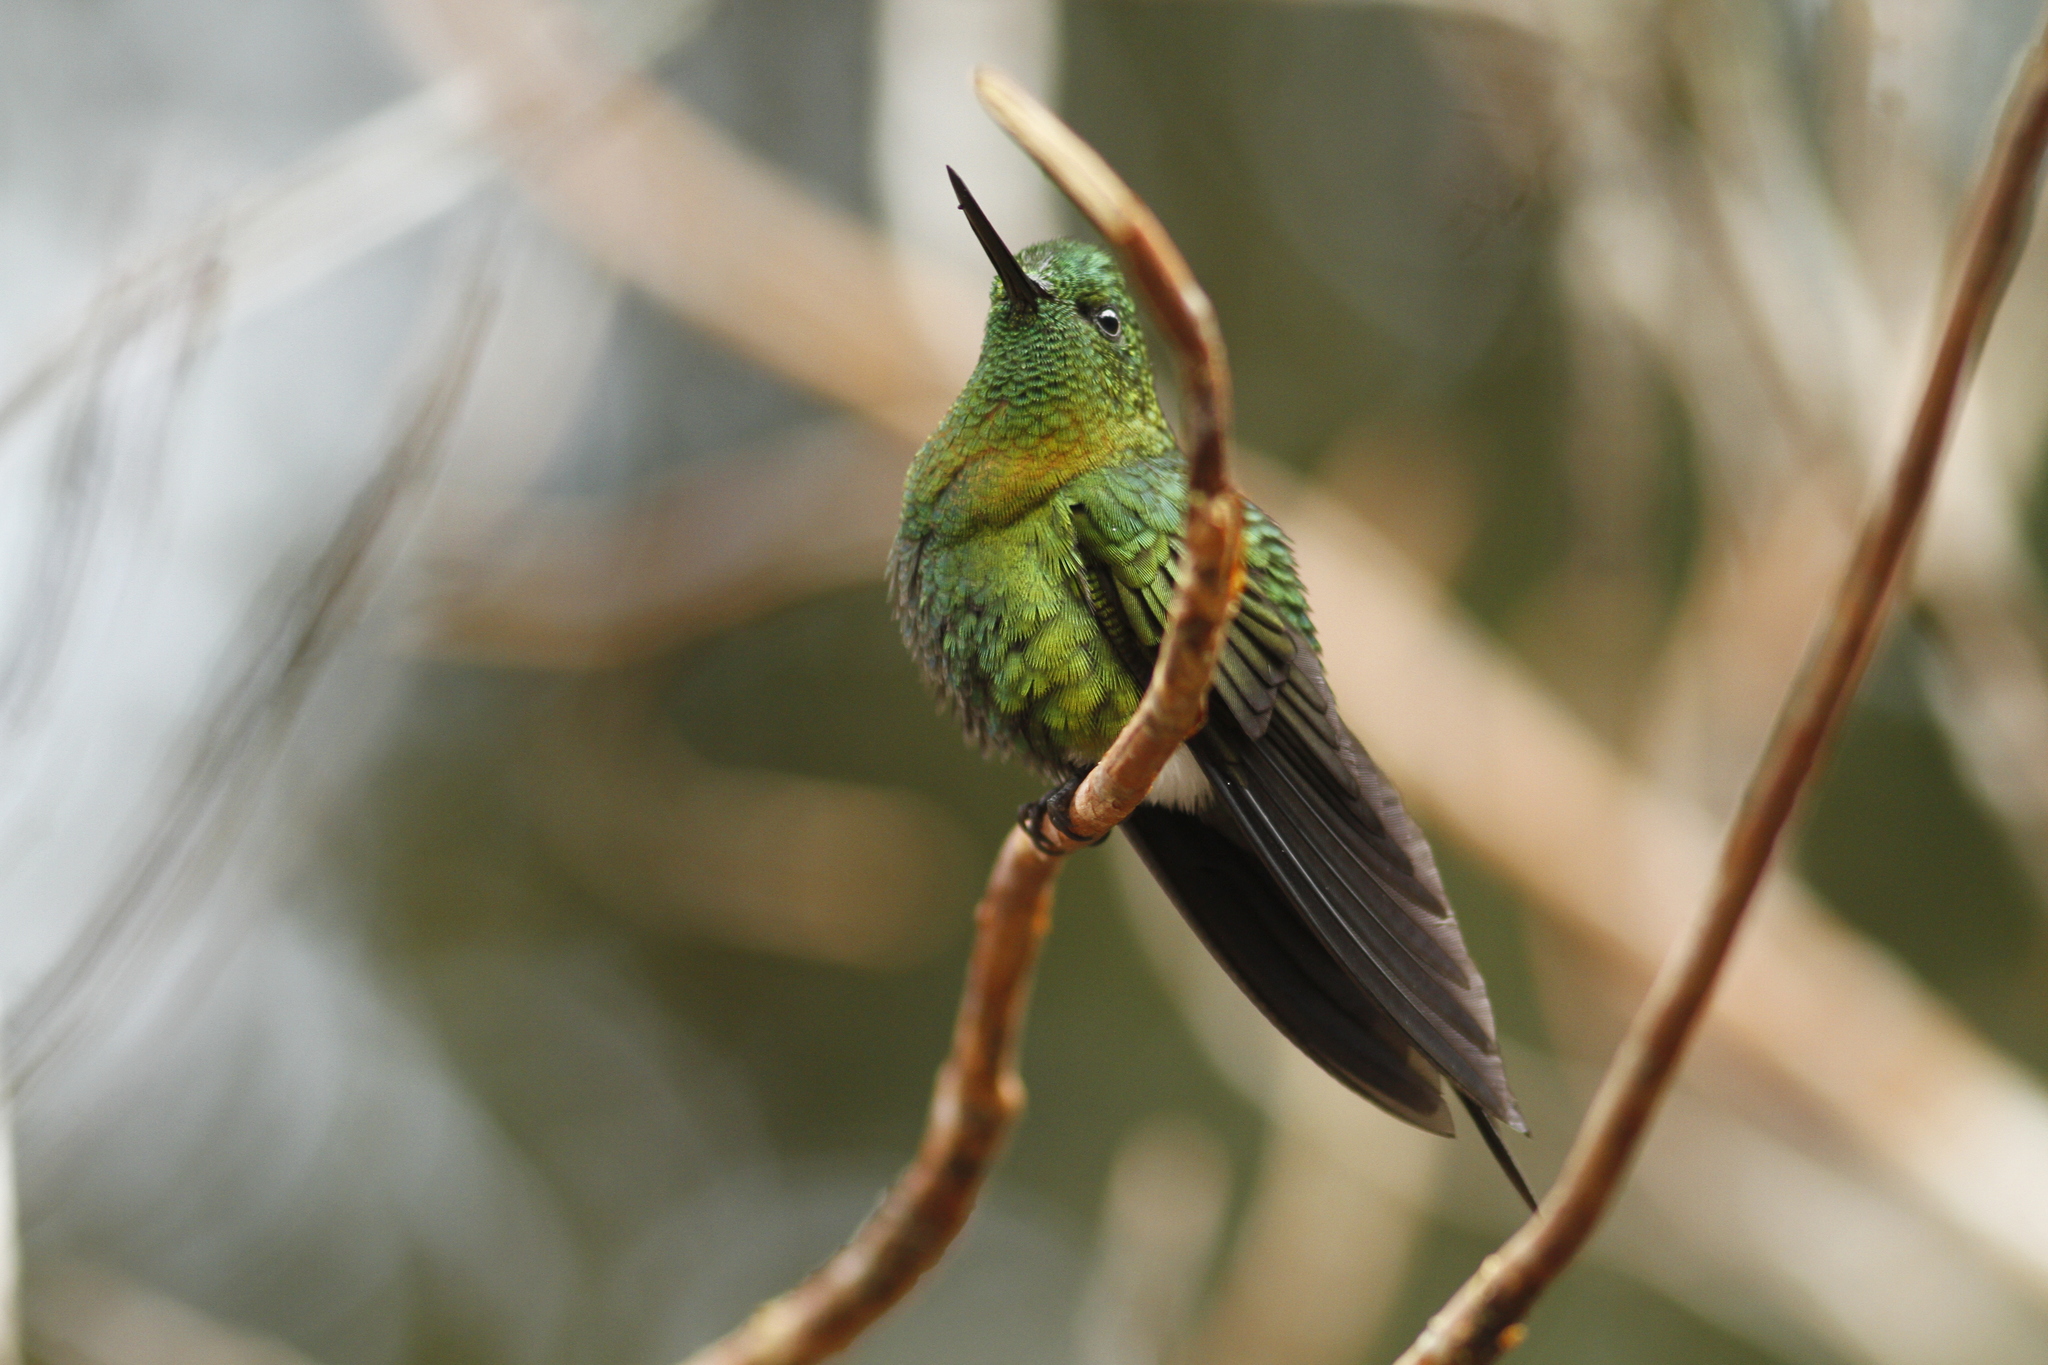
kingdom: Animalia
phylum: Chordata
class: Aves
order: Apodiformes
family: Trochilidae
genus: Eriocnemis
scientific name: Eriocnemis mosquera
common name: Golden-breasted puffleg
